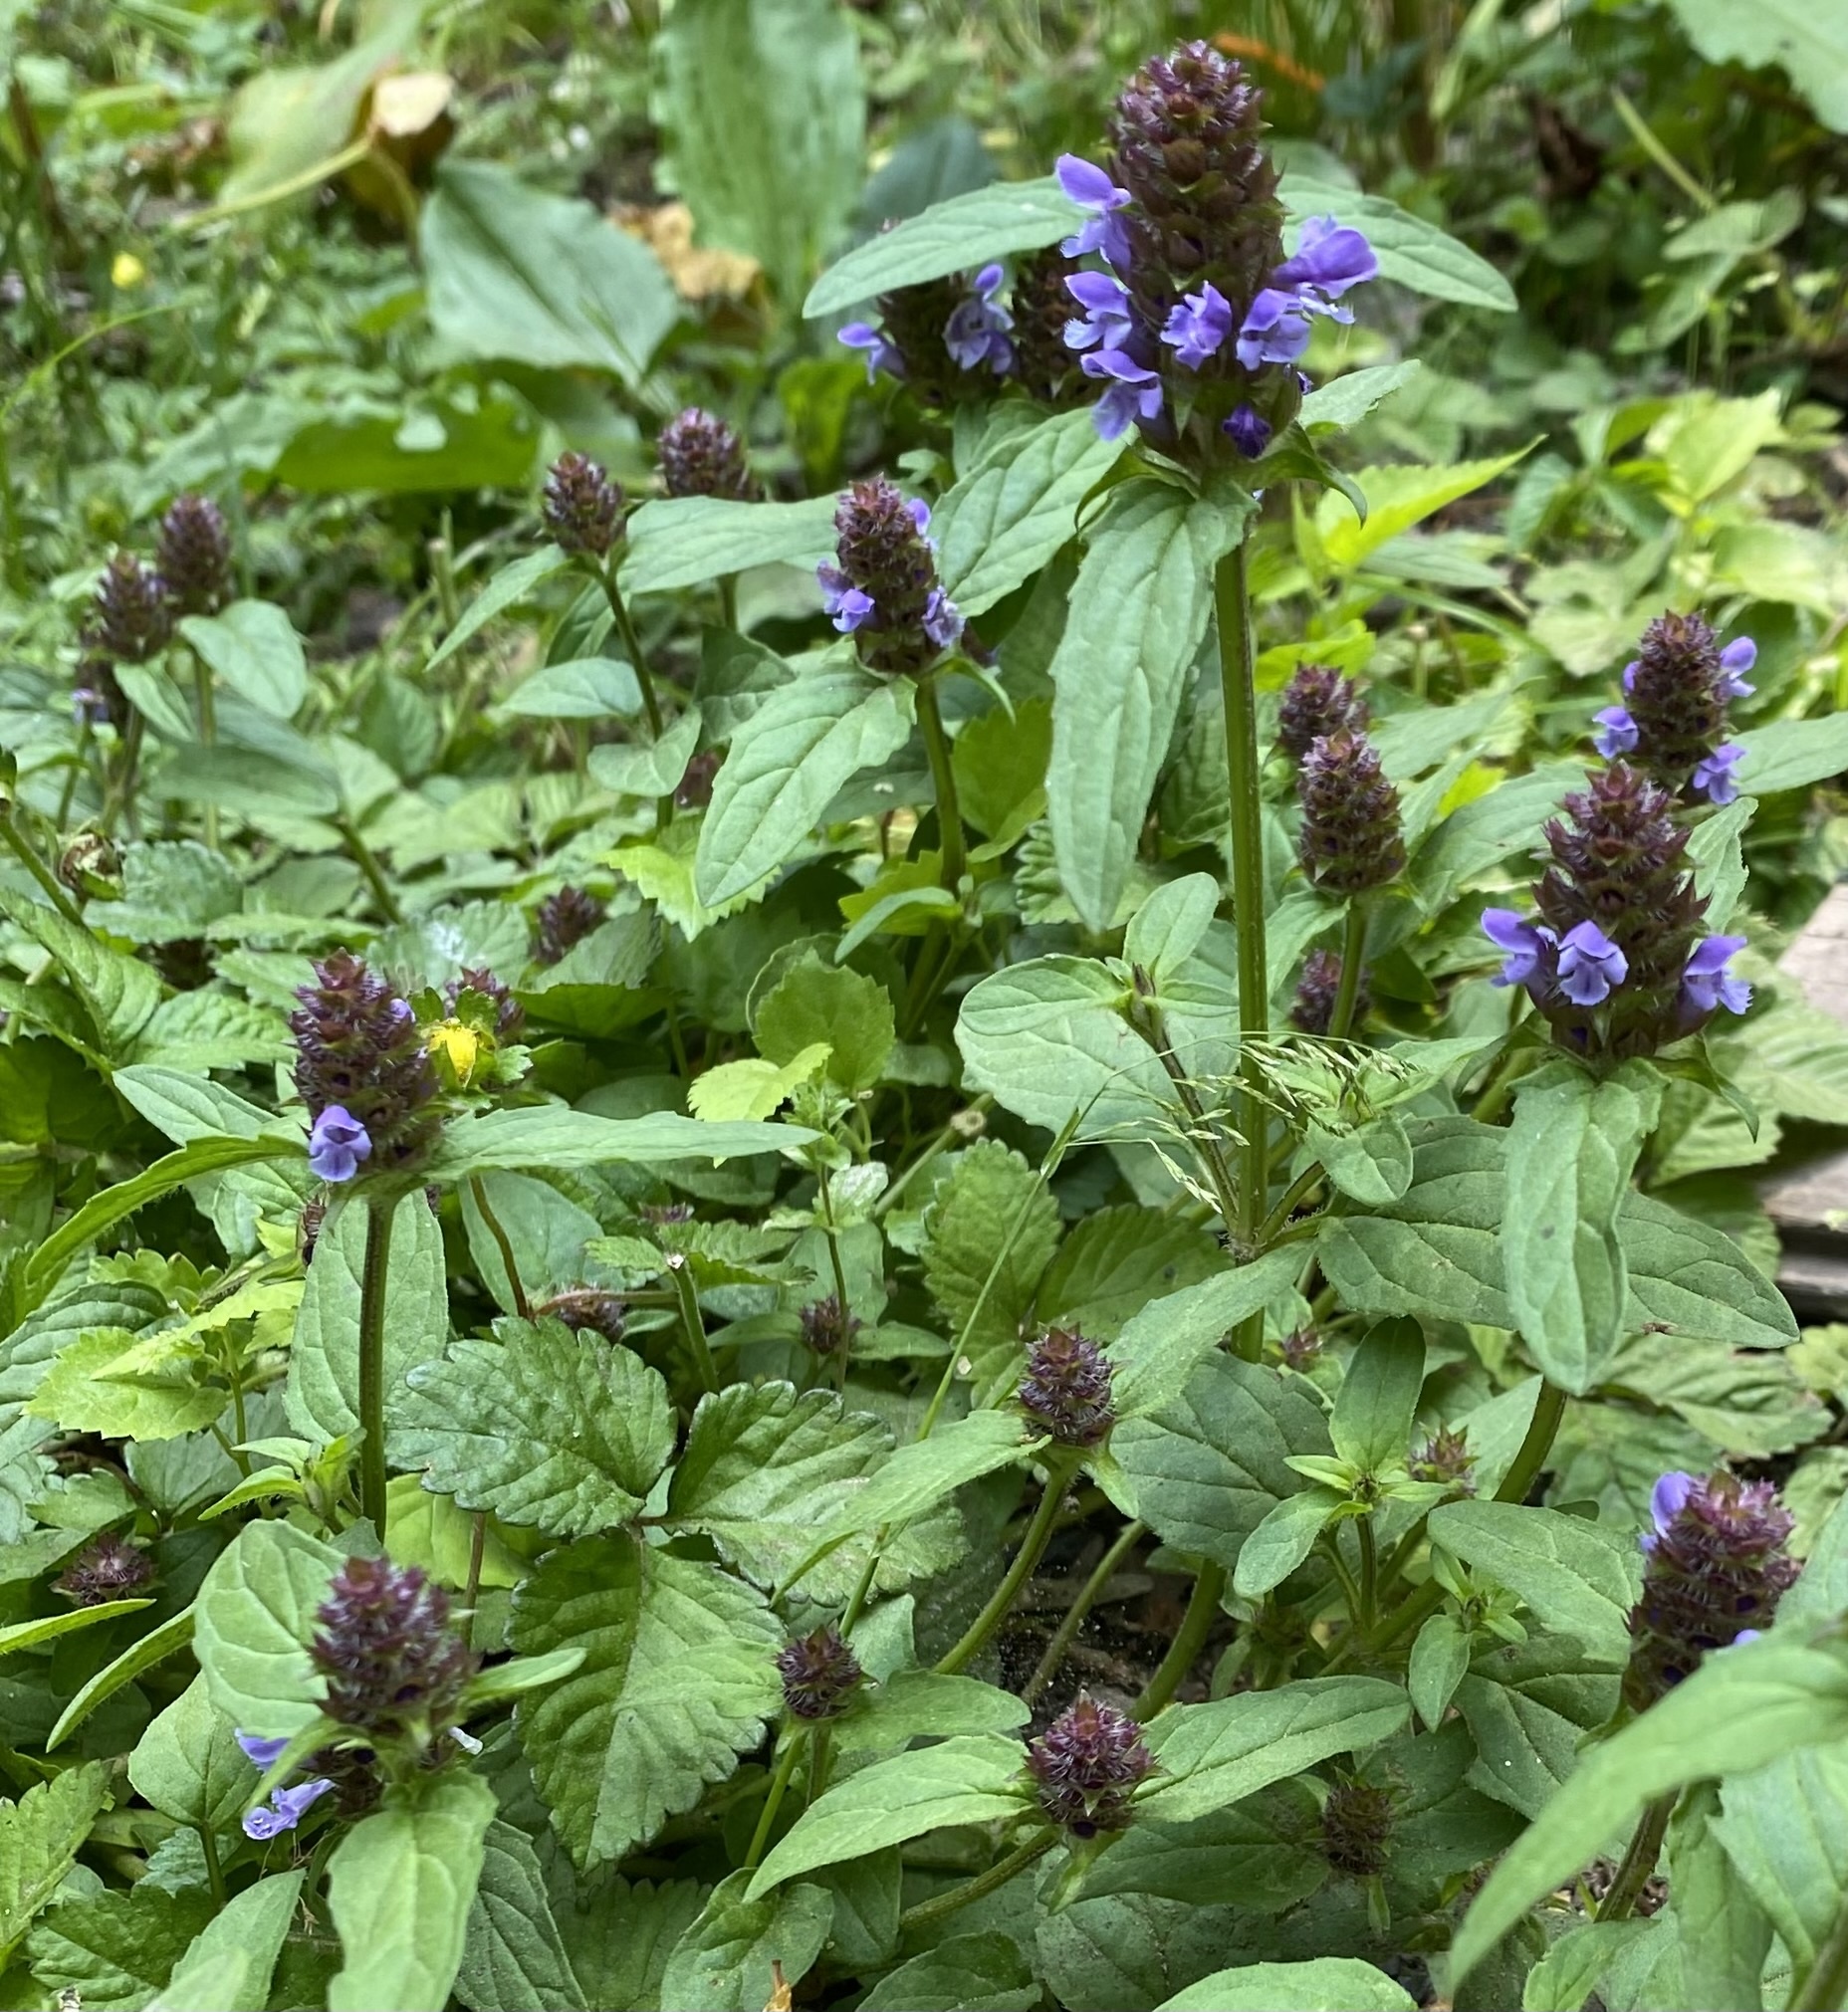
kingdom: Plantae
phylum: Tracheophyta
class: Magnoliopsida
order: Lamiales
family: Lamiaceae
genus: Prunella
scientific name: Prunella vulgaris
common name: Heal-all
